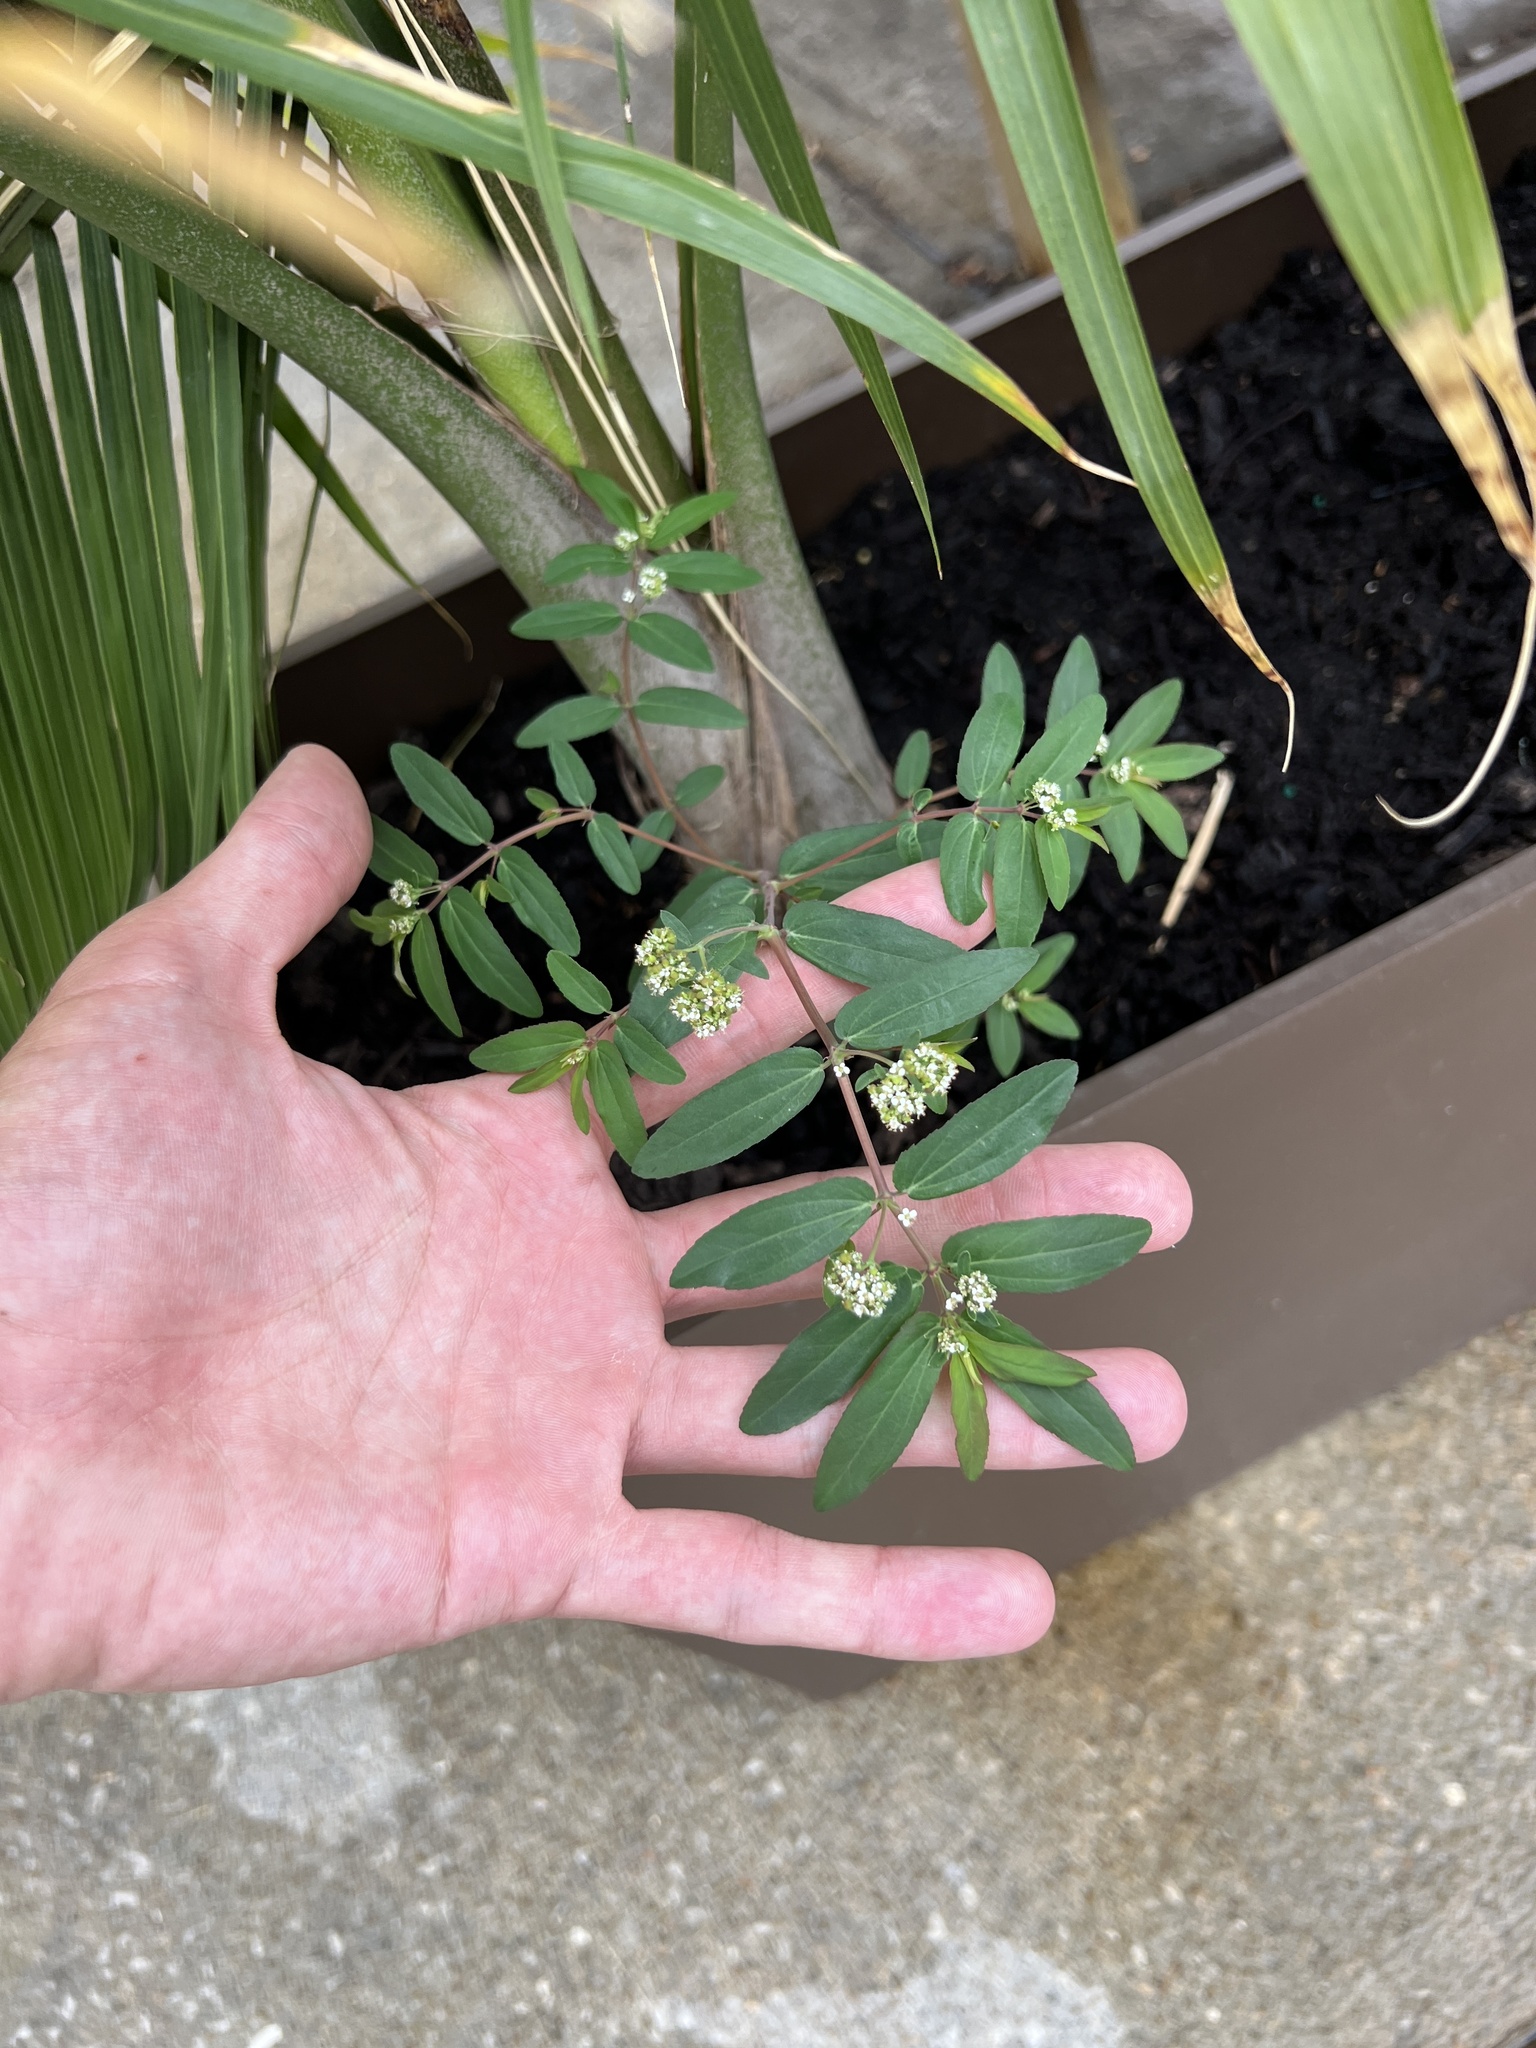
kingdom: Plantae
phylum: Tracheophyta
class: Magnoliopsida
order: Malpighiales
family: Euphorbiaceae
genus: Euphorbia
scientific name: Euphorbia hypericifolia
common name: Graceful sandmat
